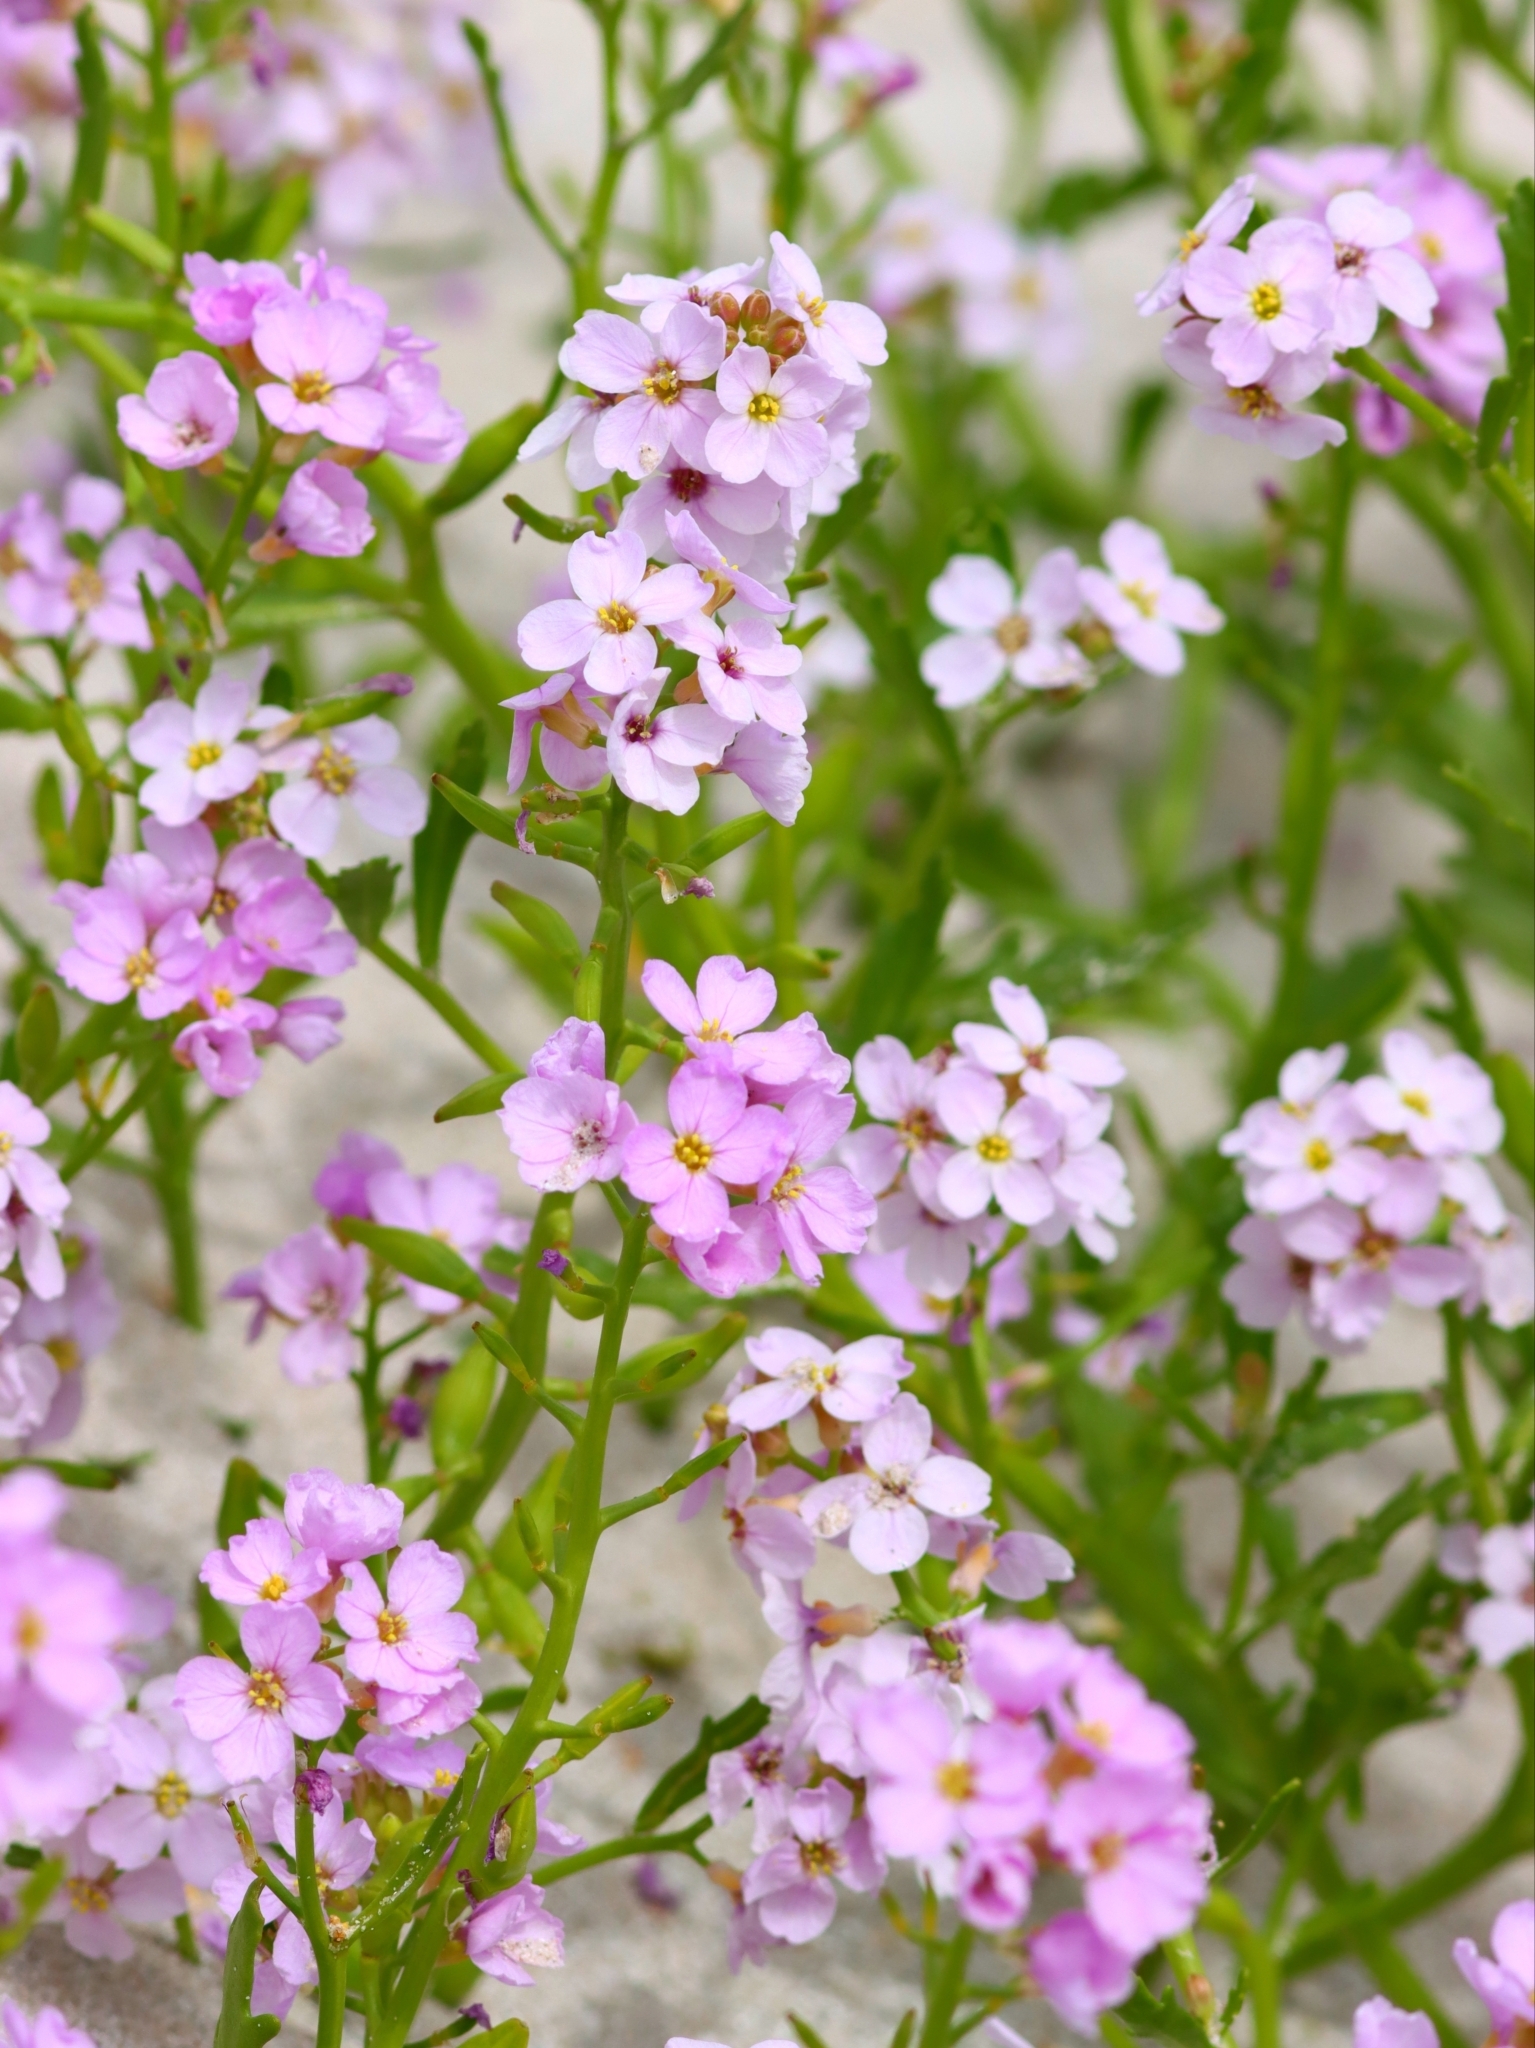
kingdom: Plantae
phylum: Tracheophyta
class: Magnoliopsida
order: Brassicales
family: Brassicaceae
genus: Cakile
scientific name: Cakile maritima
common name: Sea rocket
